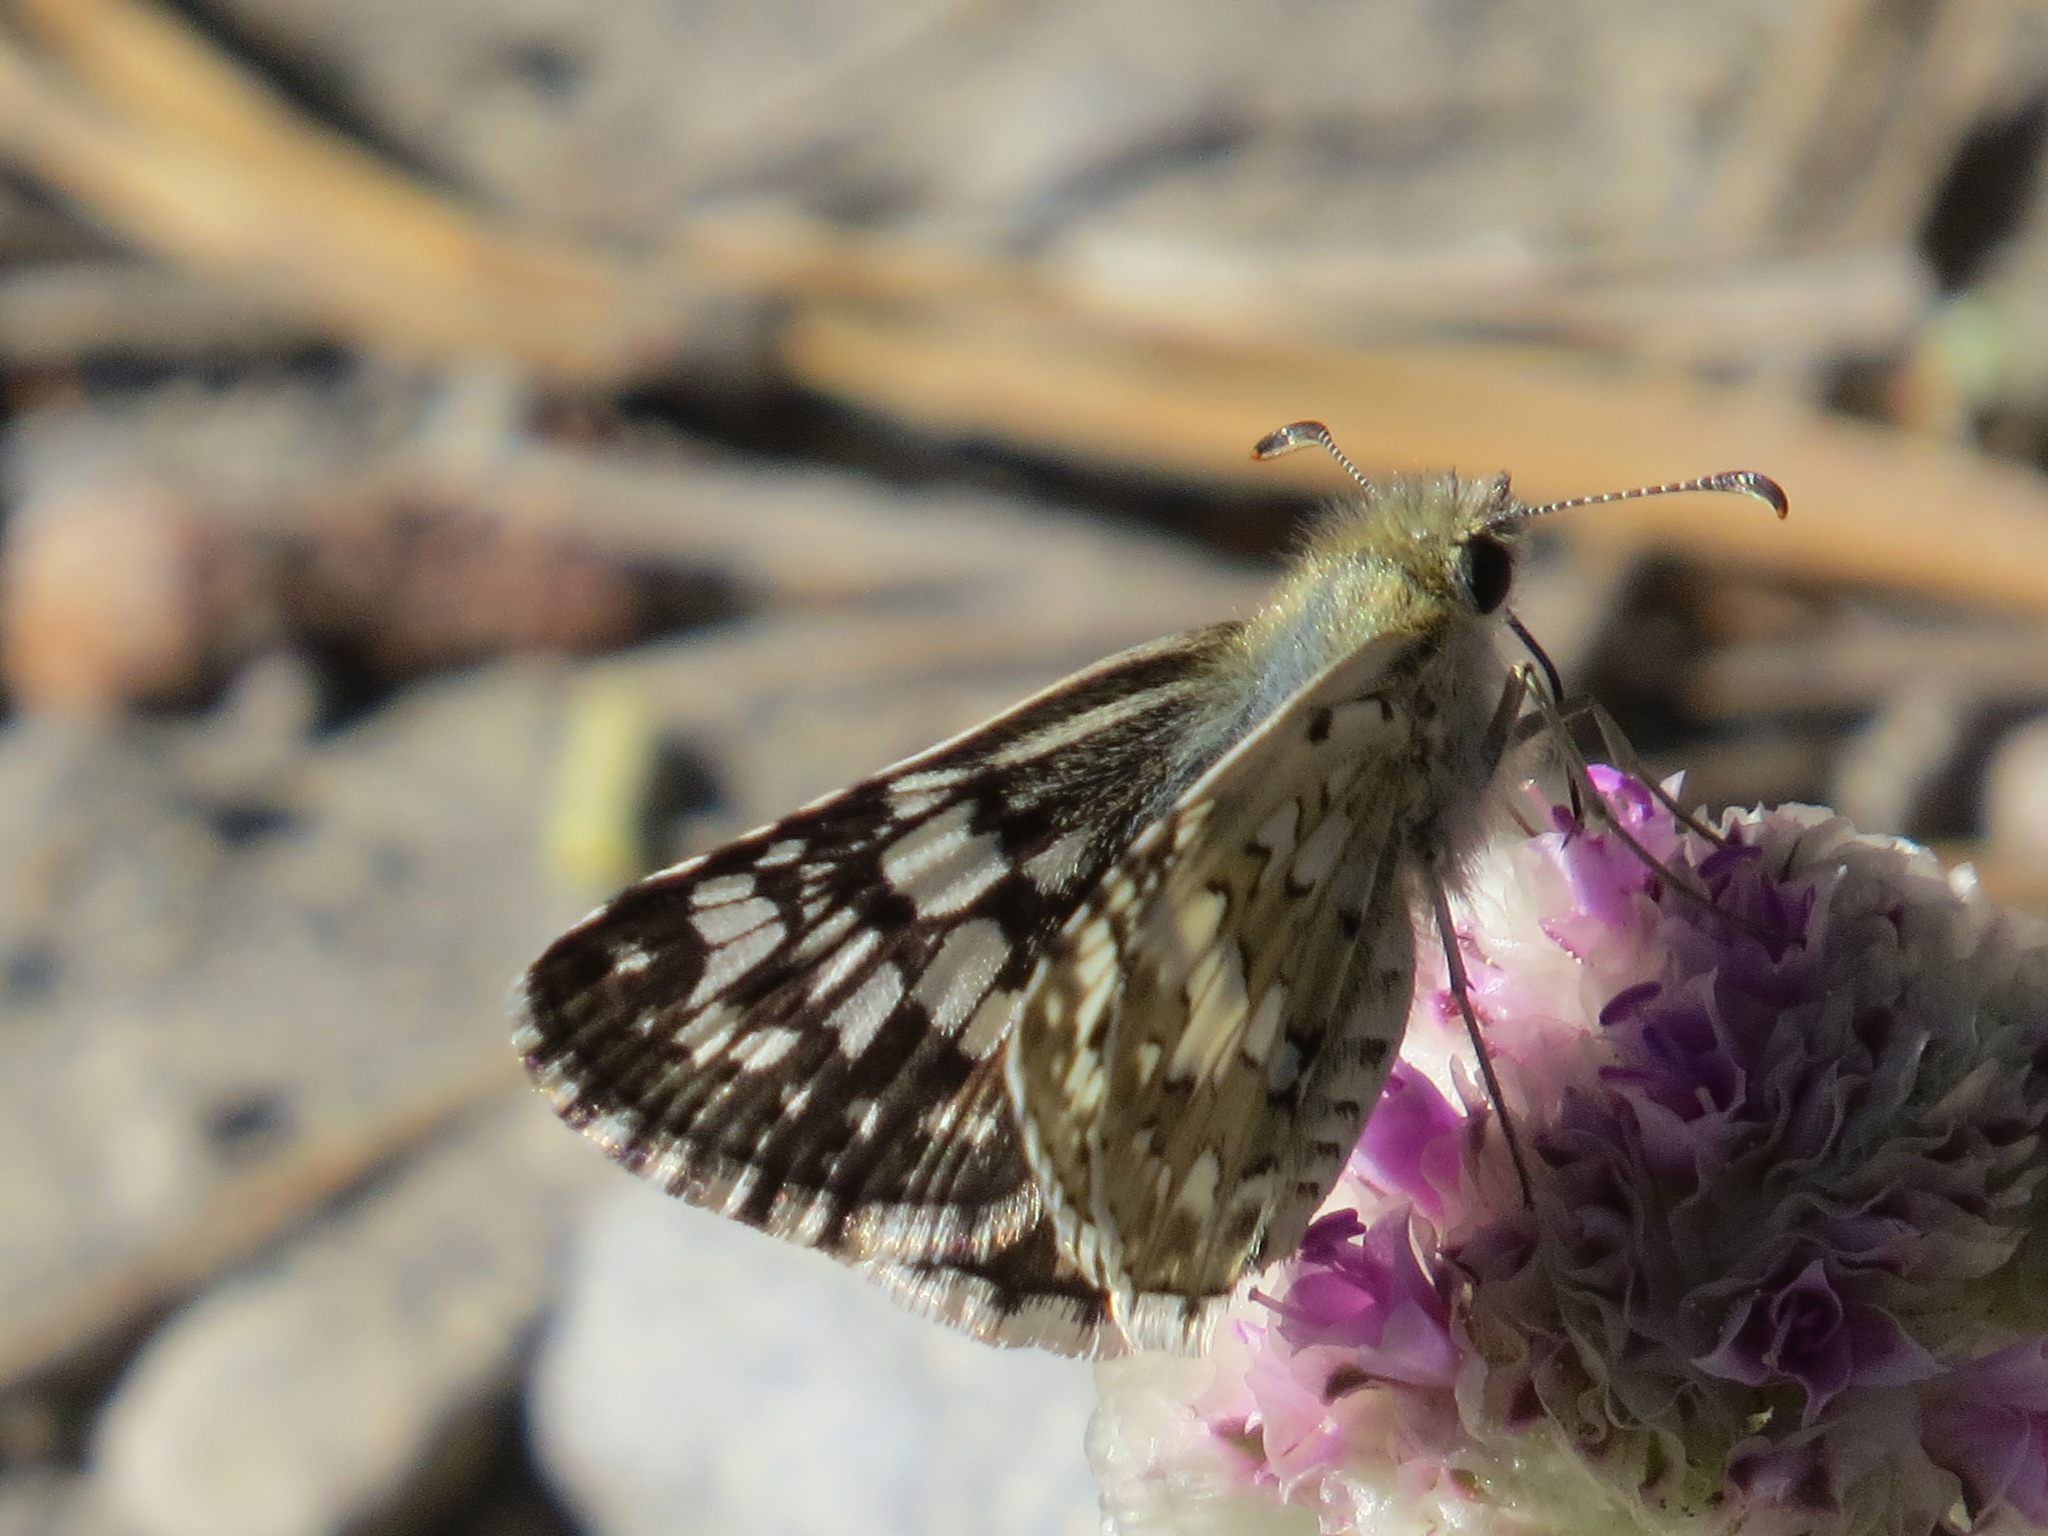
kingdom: Animalia
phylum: Arthropoda
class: Insecta
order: Lepidoptera
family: Hesperiidae
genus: Burnsius
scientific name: Burnsius communis
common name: Common checkered-skipper
